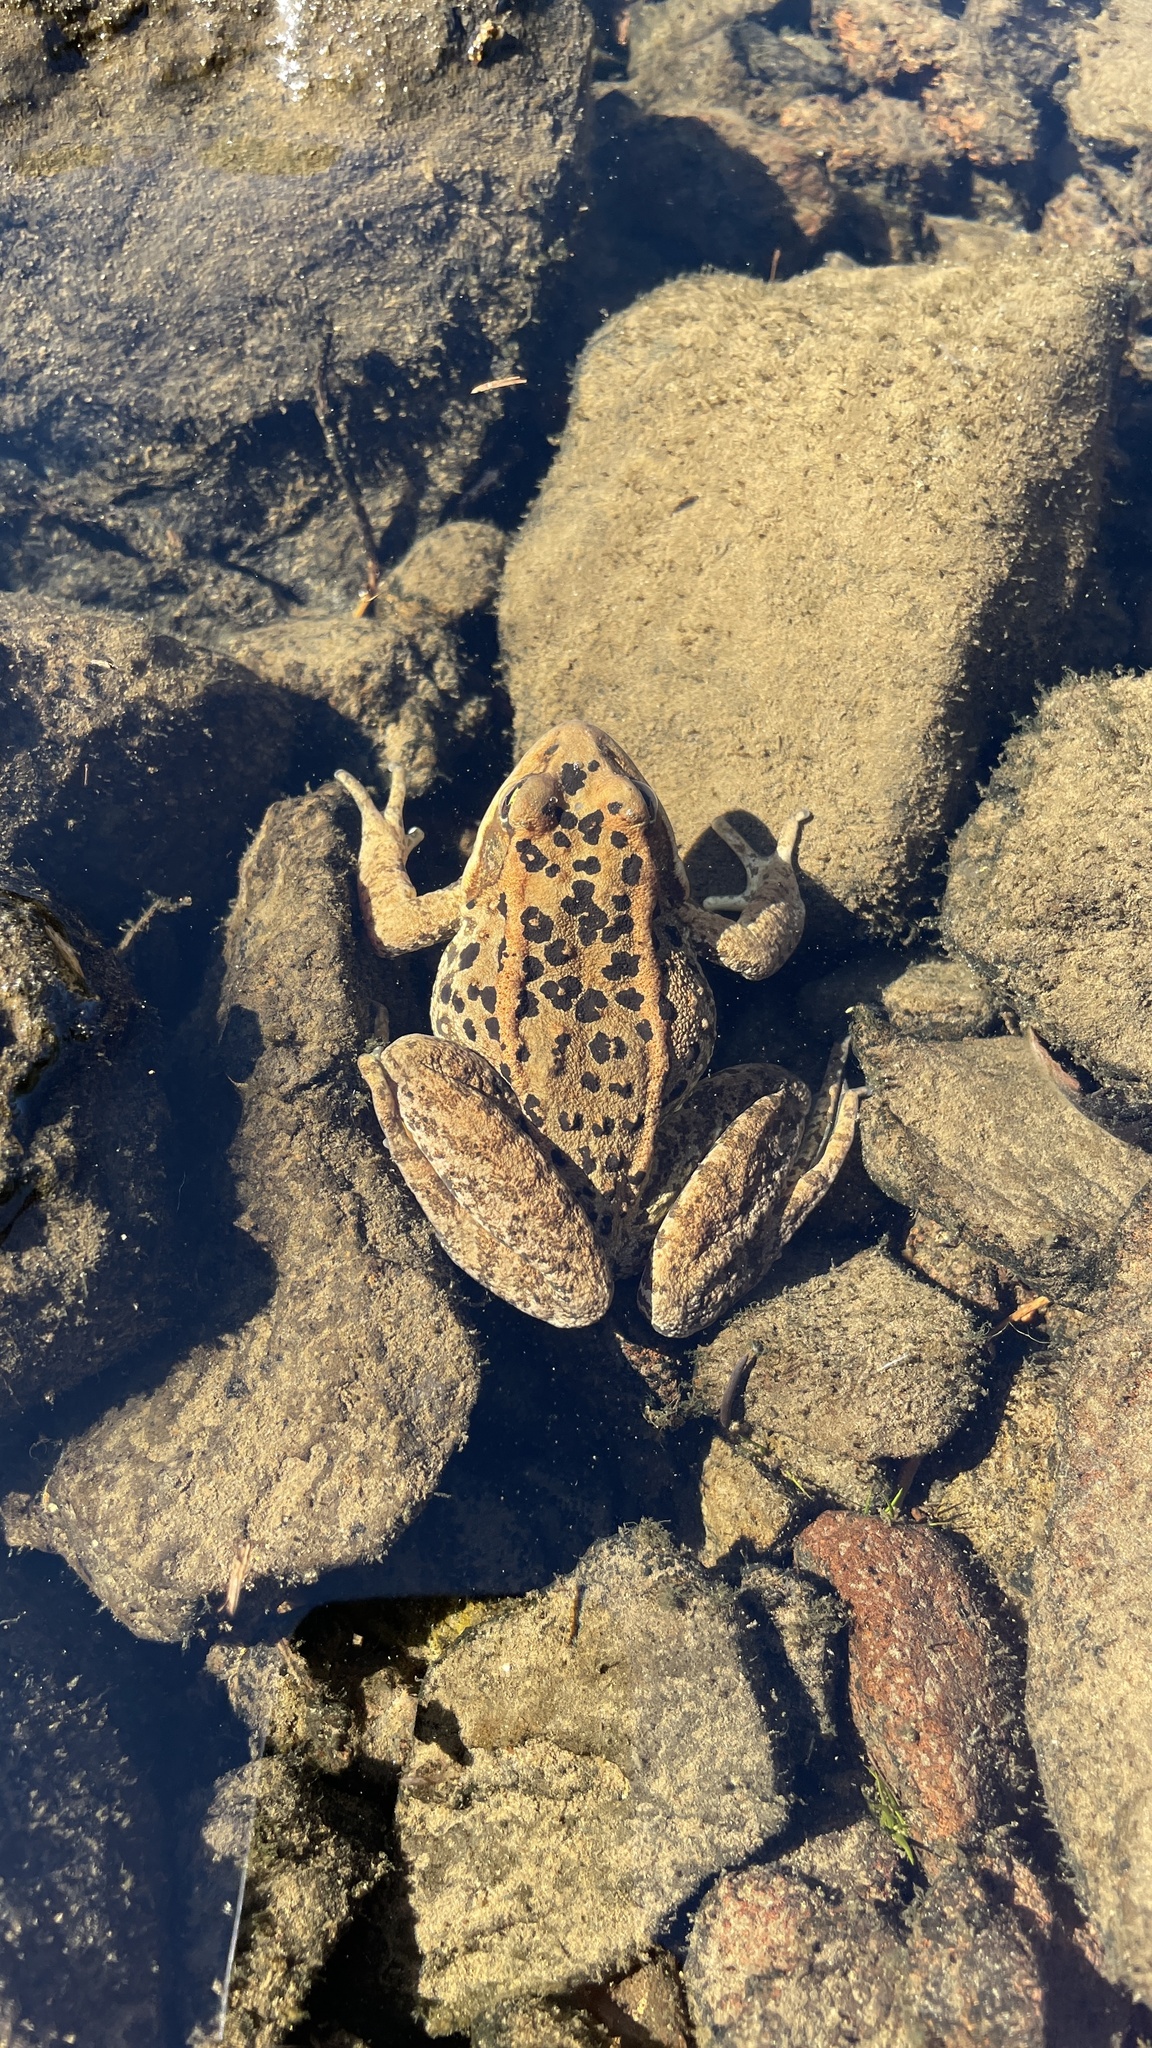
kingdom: Animalia
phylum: Chordata
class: Amphibia
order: Anura
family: Ranidae
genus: Rana
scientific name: Rana cascadae
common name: Cascades frog
